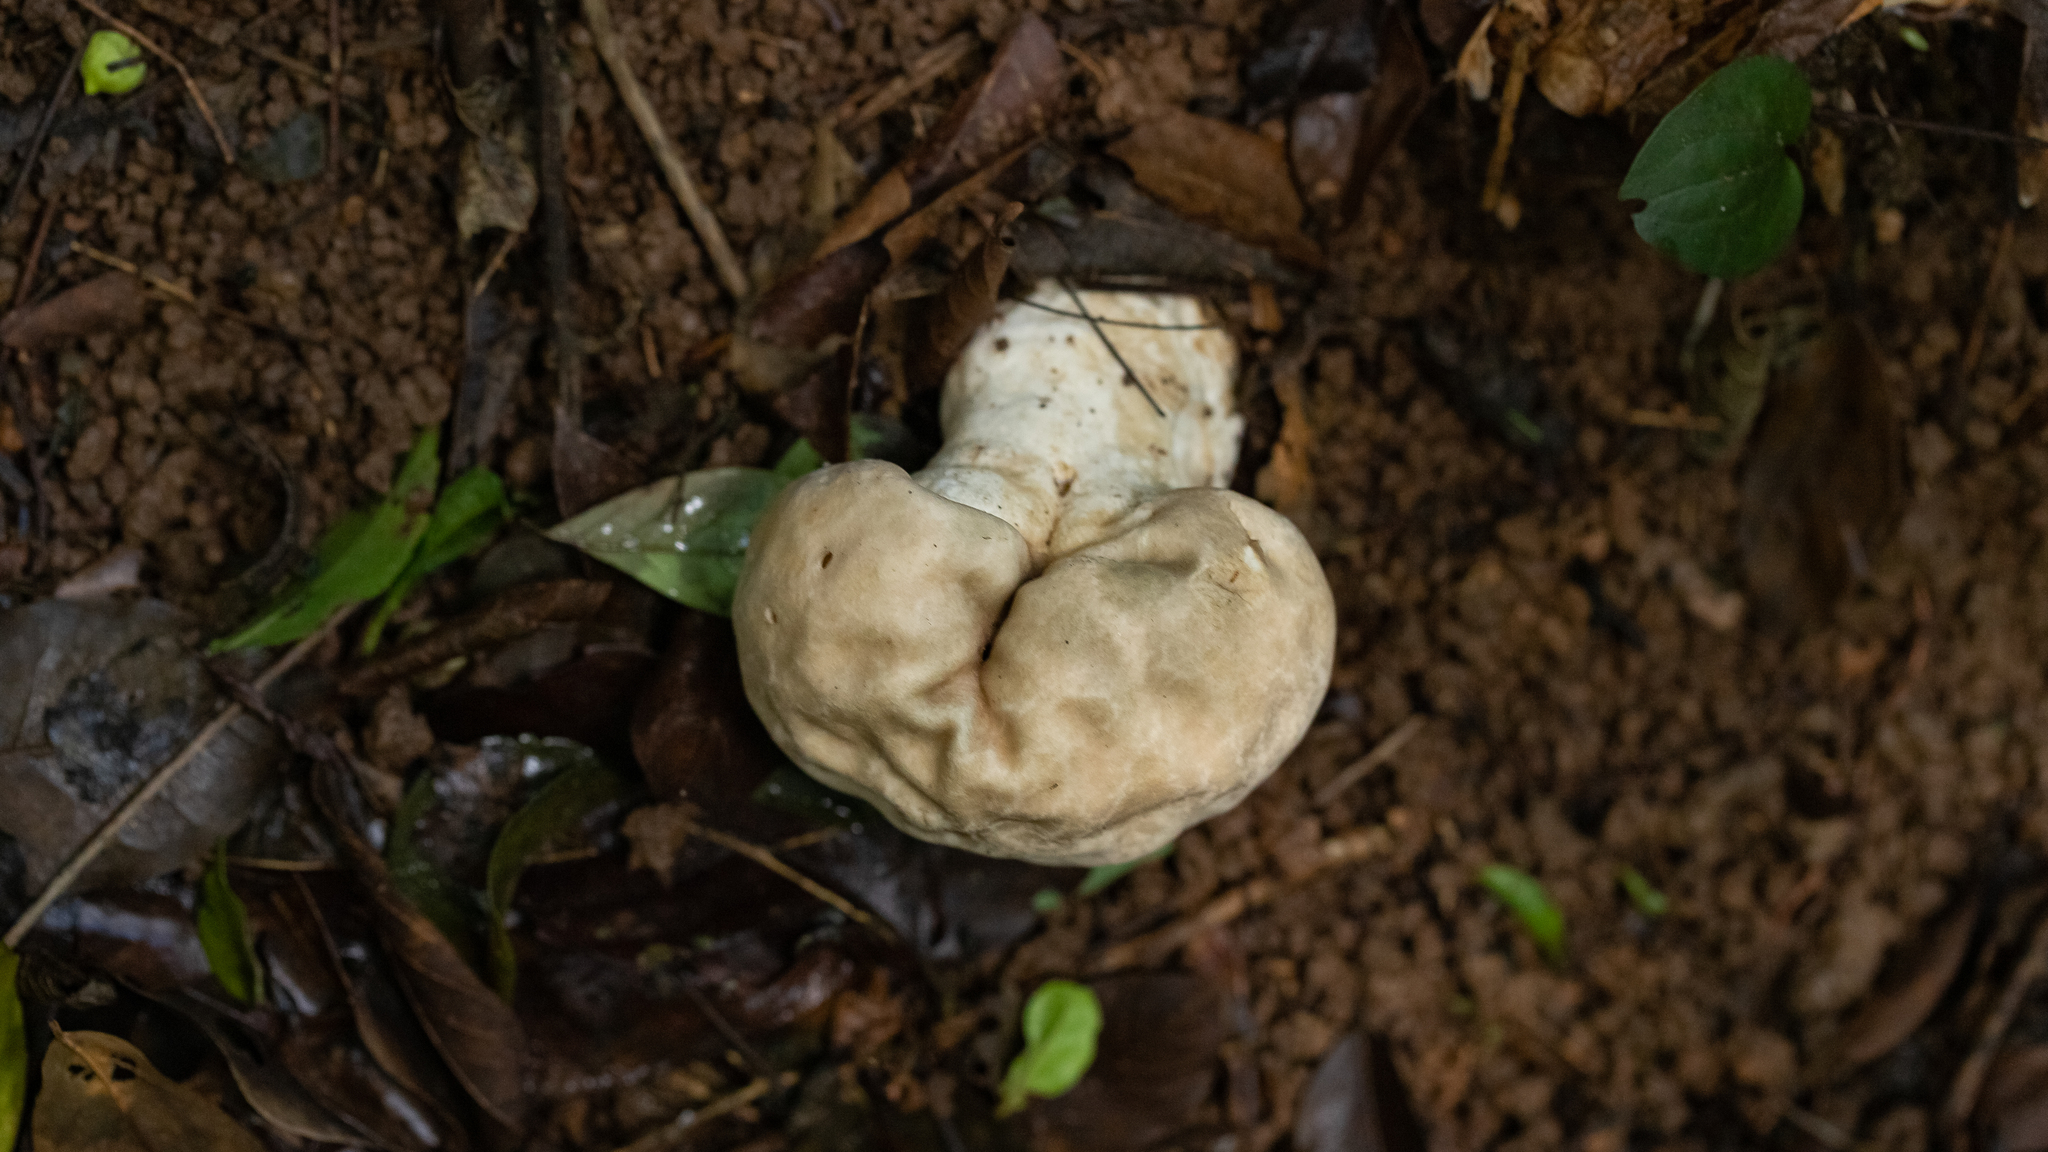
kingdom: Fungi
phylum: Basidiomycota
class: Agaricomycetes
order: Agaricales
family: Lycoperdaceae
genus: Calvatia
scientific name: Calvatia craniiformis
